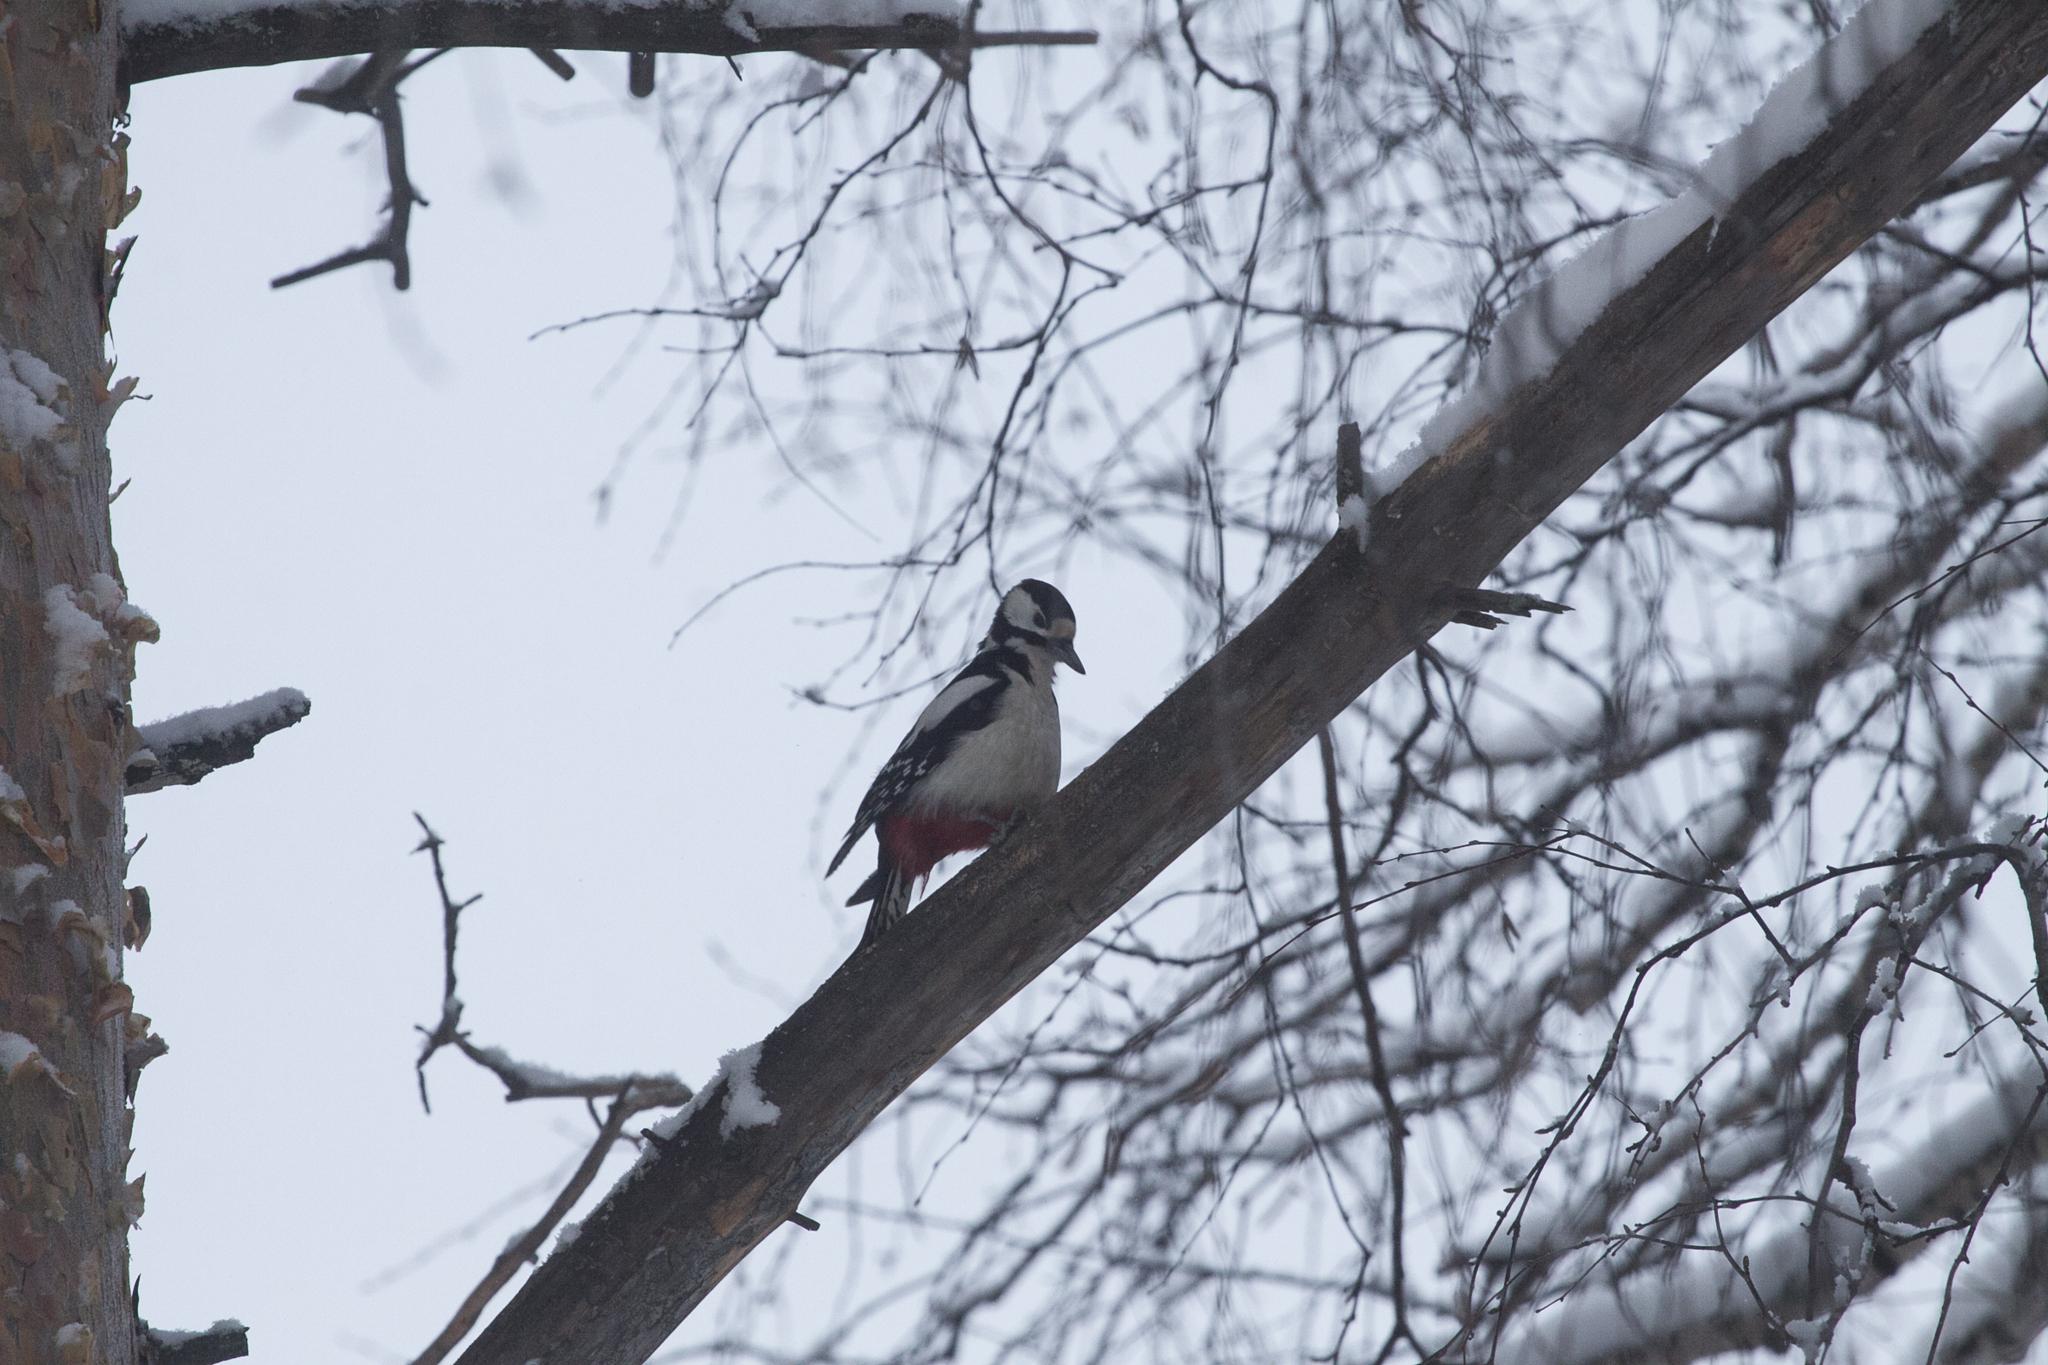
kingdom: Animalia
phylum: Chordata
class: Aves
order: Piciformes
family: Picidae
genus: Dendrocopos
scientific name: Dendrocopos major
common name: Great spotted woodpecker
